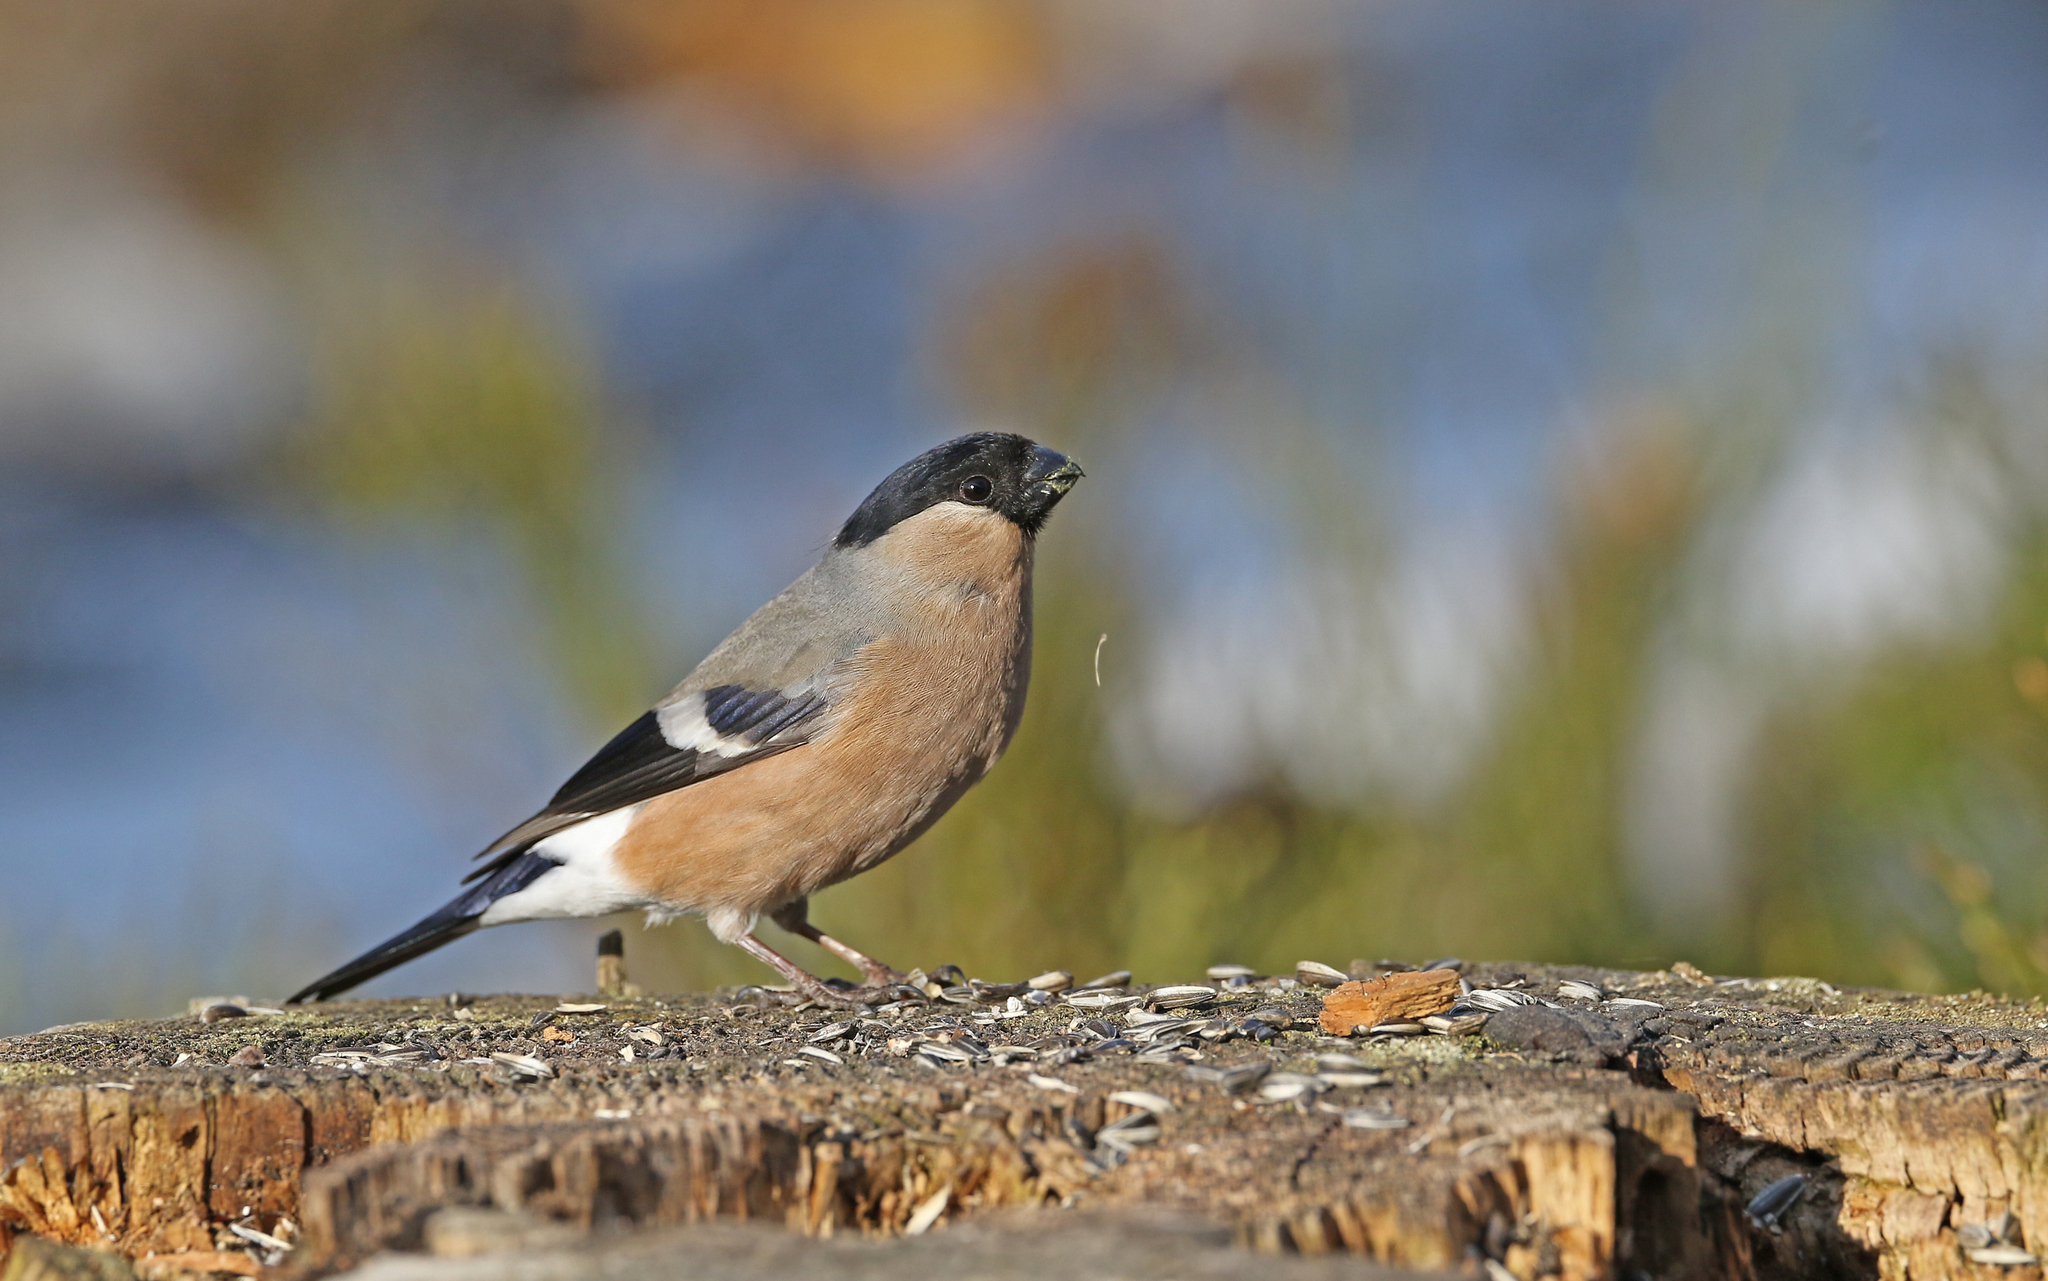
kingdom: Animalia
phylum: Chordata
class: Aves
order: Passeriformes
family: Fringillidae
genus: Pyrrhula
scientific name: Pyrrhula pyrrhula
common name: Eurasian bullfinch
